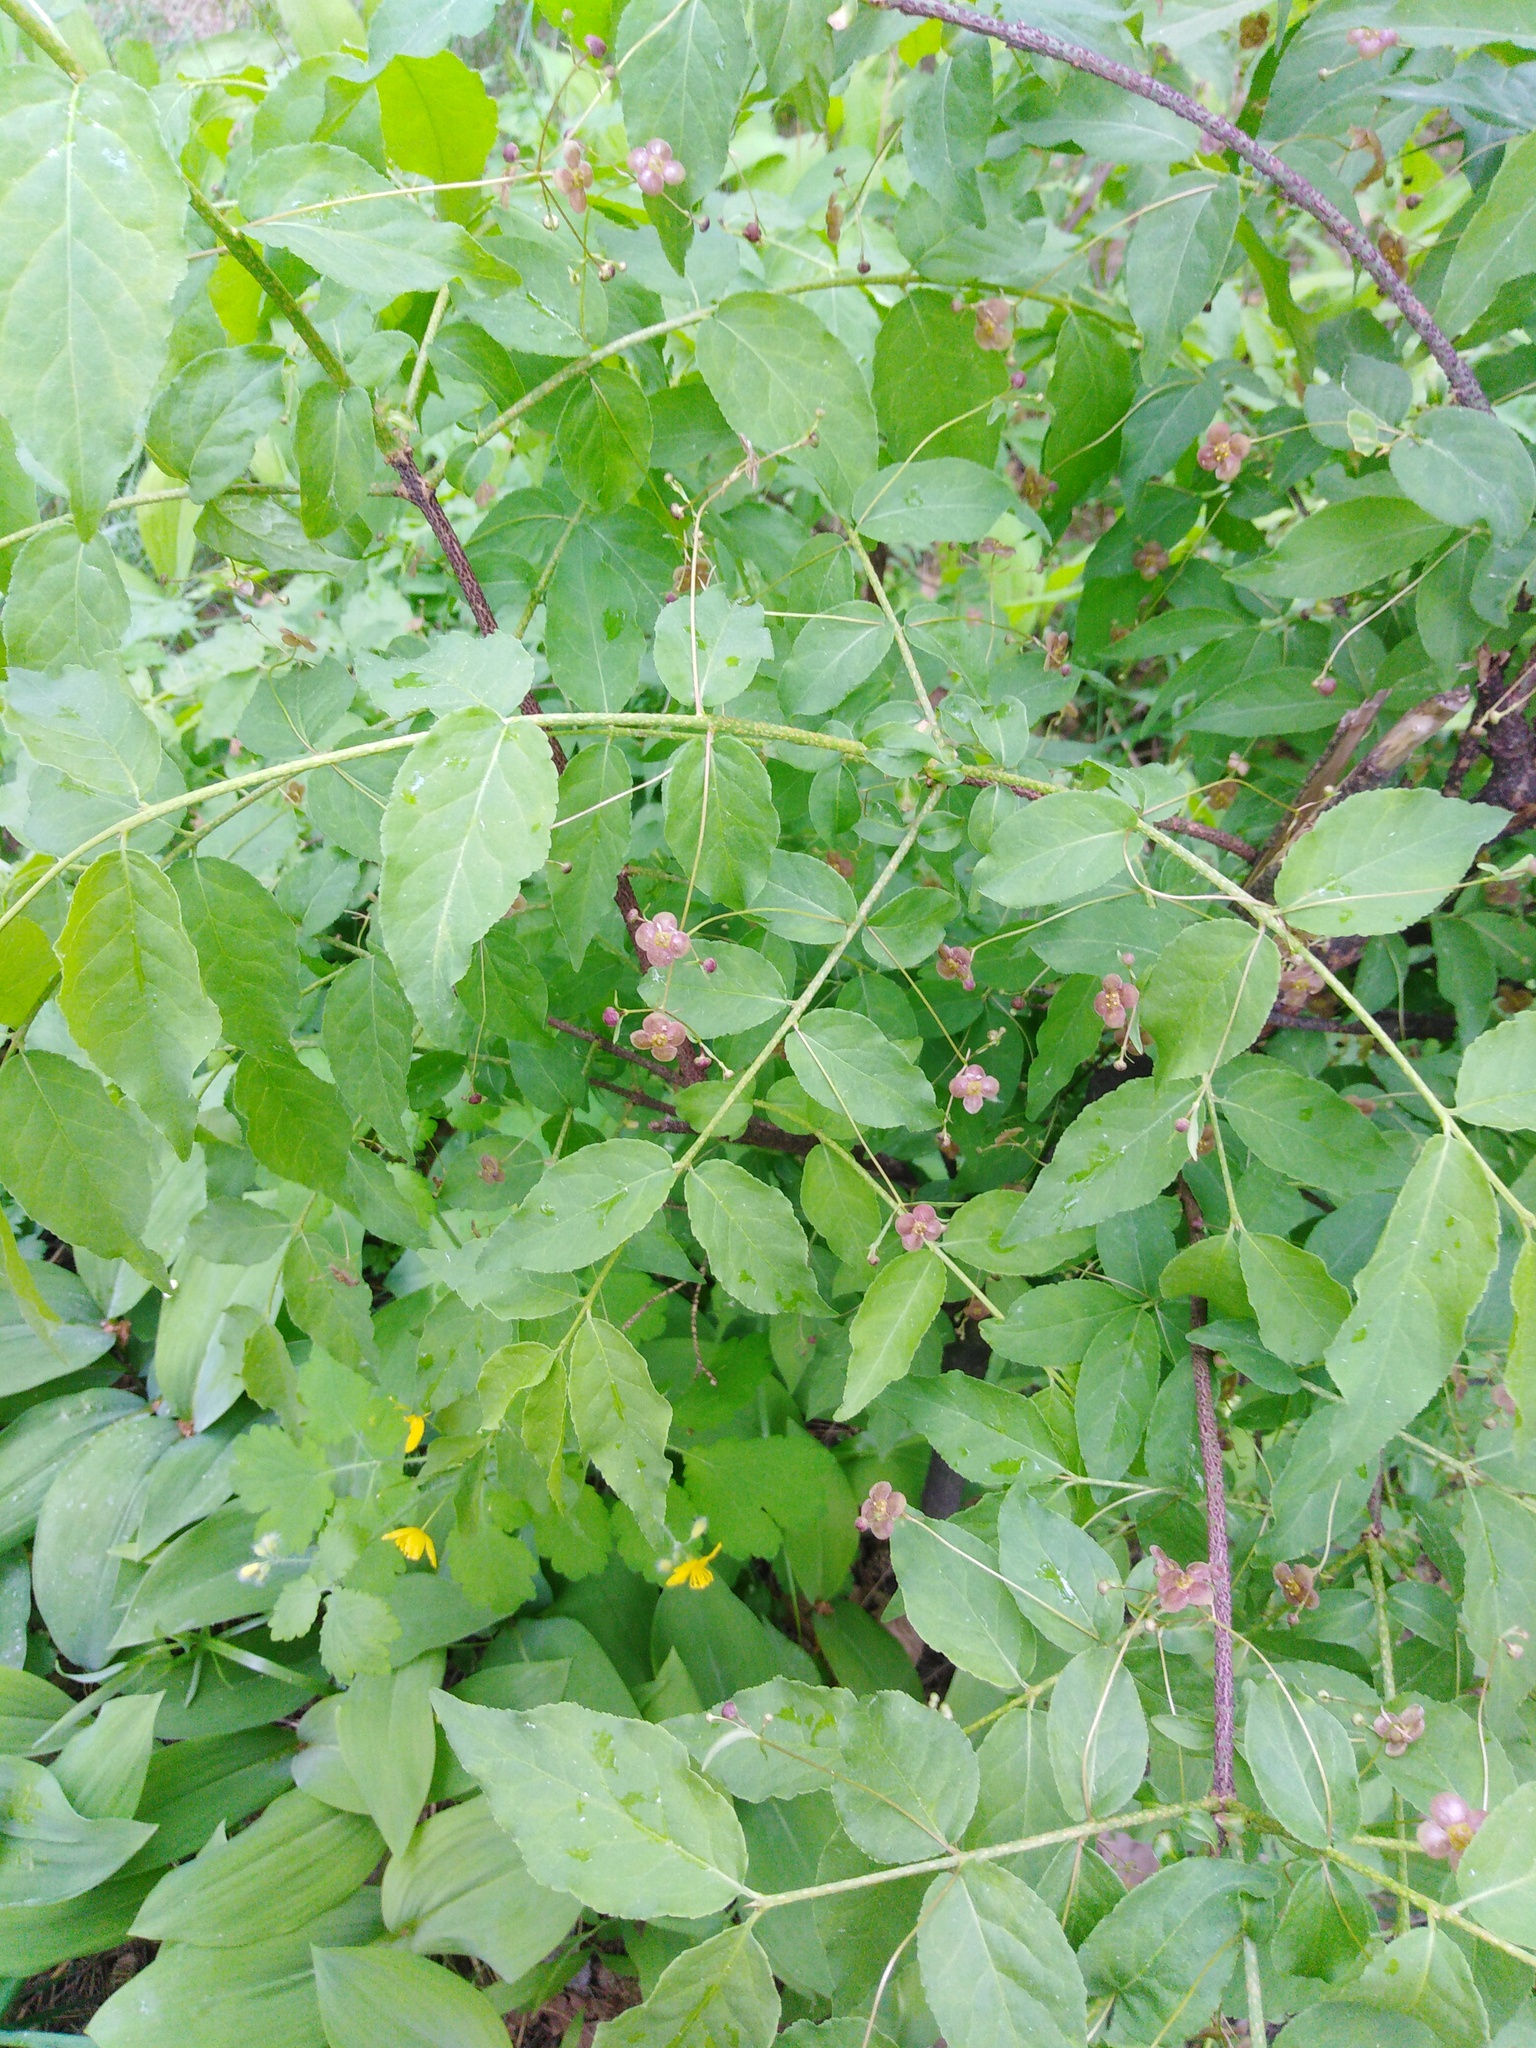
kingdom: Plantae
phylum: Tracheophyta
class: Magnoliopsida
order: Celastrales
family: Celastraceae
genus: Euonymus
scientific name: Euonymus verrucosus
